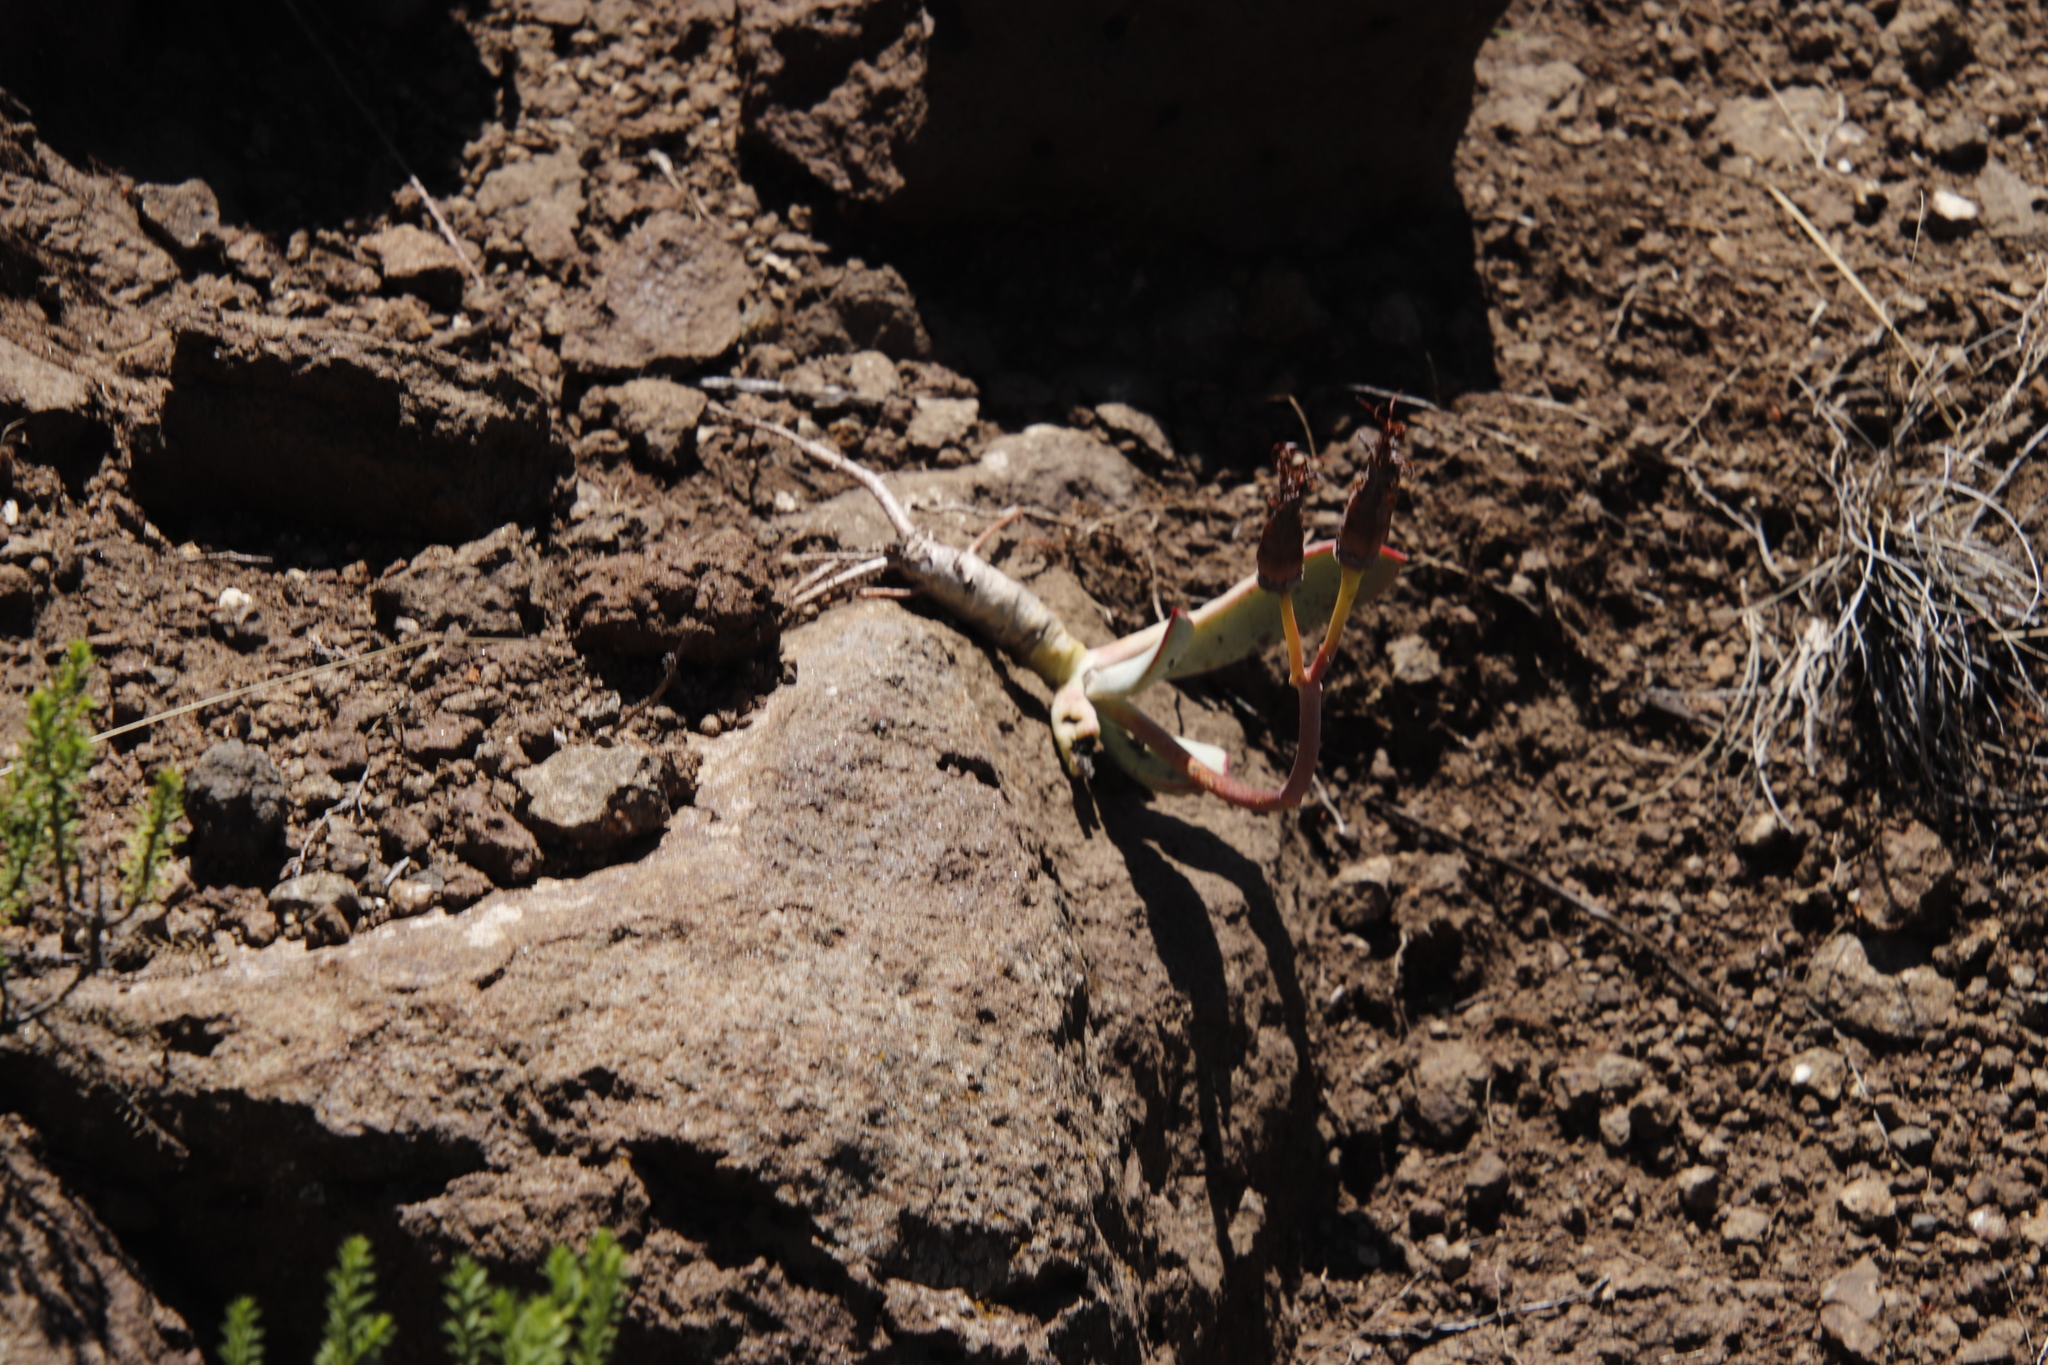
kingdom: Plantae
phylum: Tracheophyta
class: Magnoliopsida
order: Saxifragales
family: Crassulaceae
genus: Cotyledon
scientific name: Cotyledon orbiculata
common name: Pig's ear
